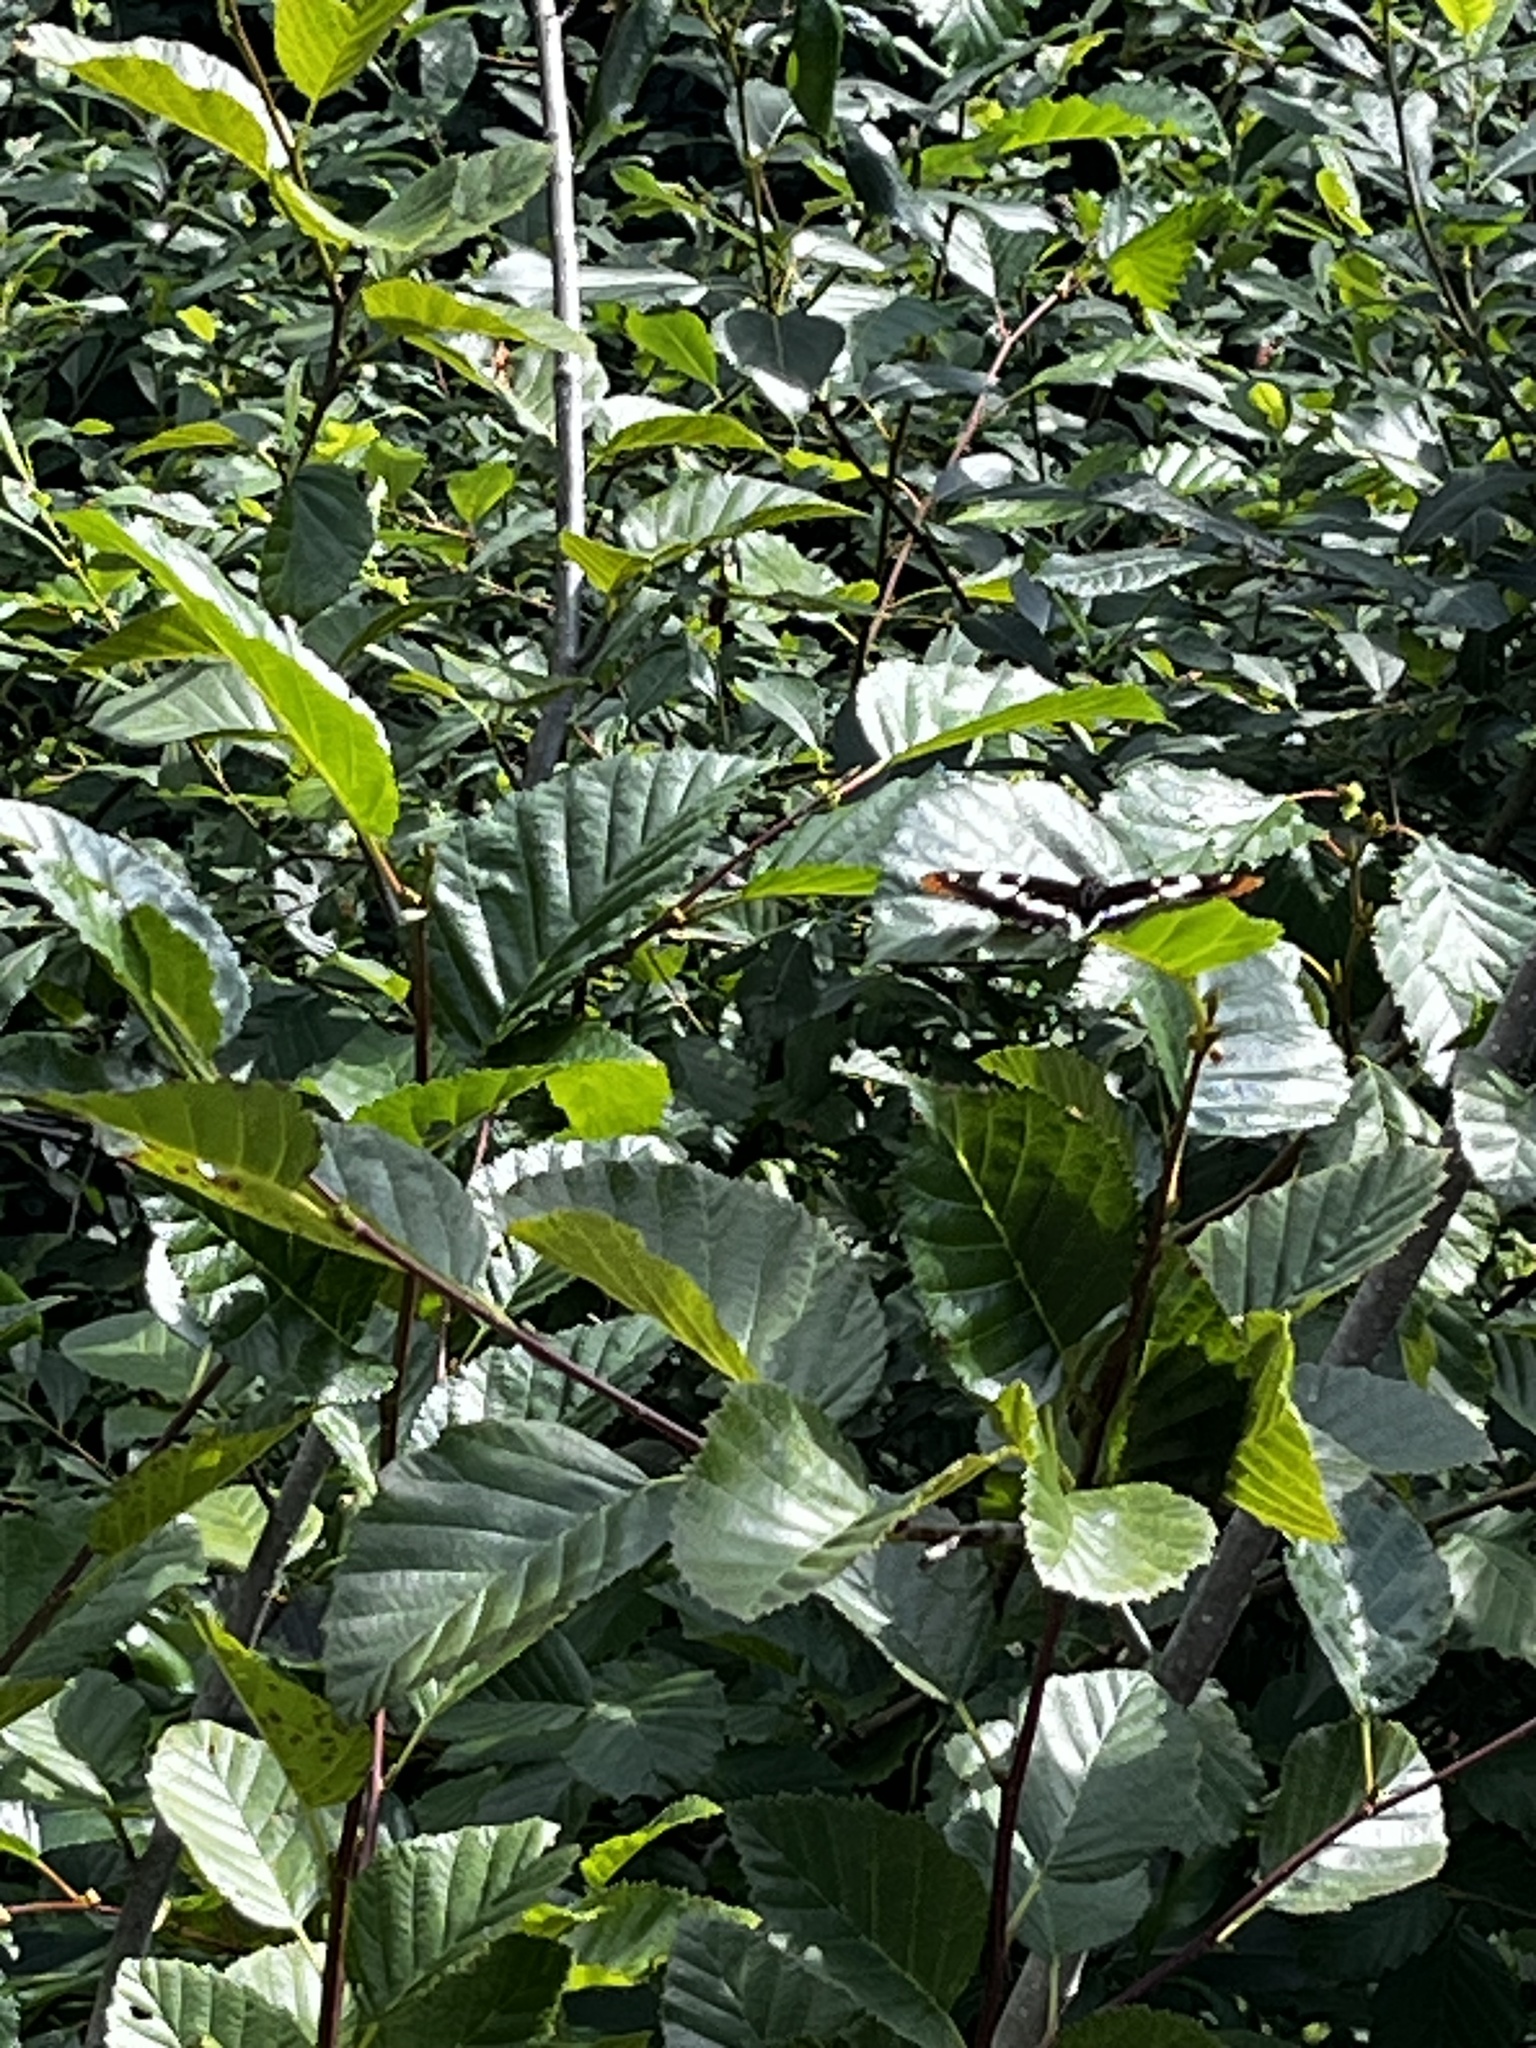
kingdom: Animalia
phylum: Arthropoda
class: Insecta
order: Lepidoptera
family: Nymphalidae
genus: Limenitis
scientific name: Limenitis lorquini
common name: Lorquin's admiral
